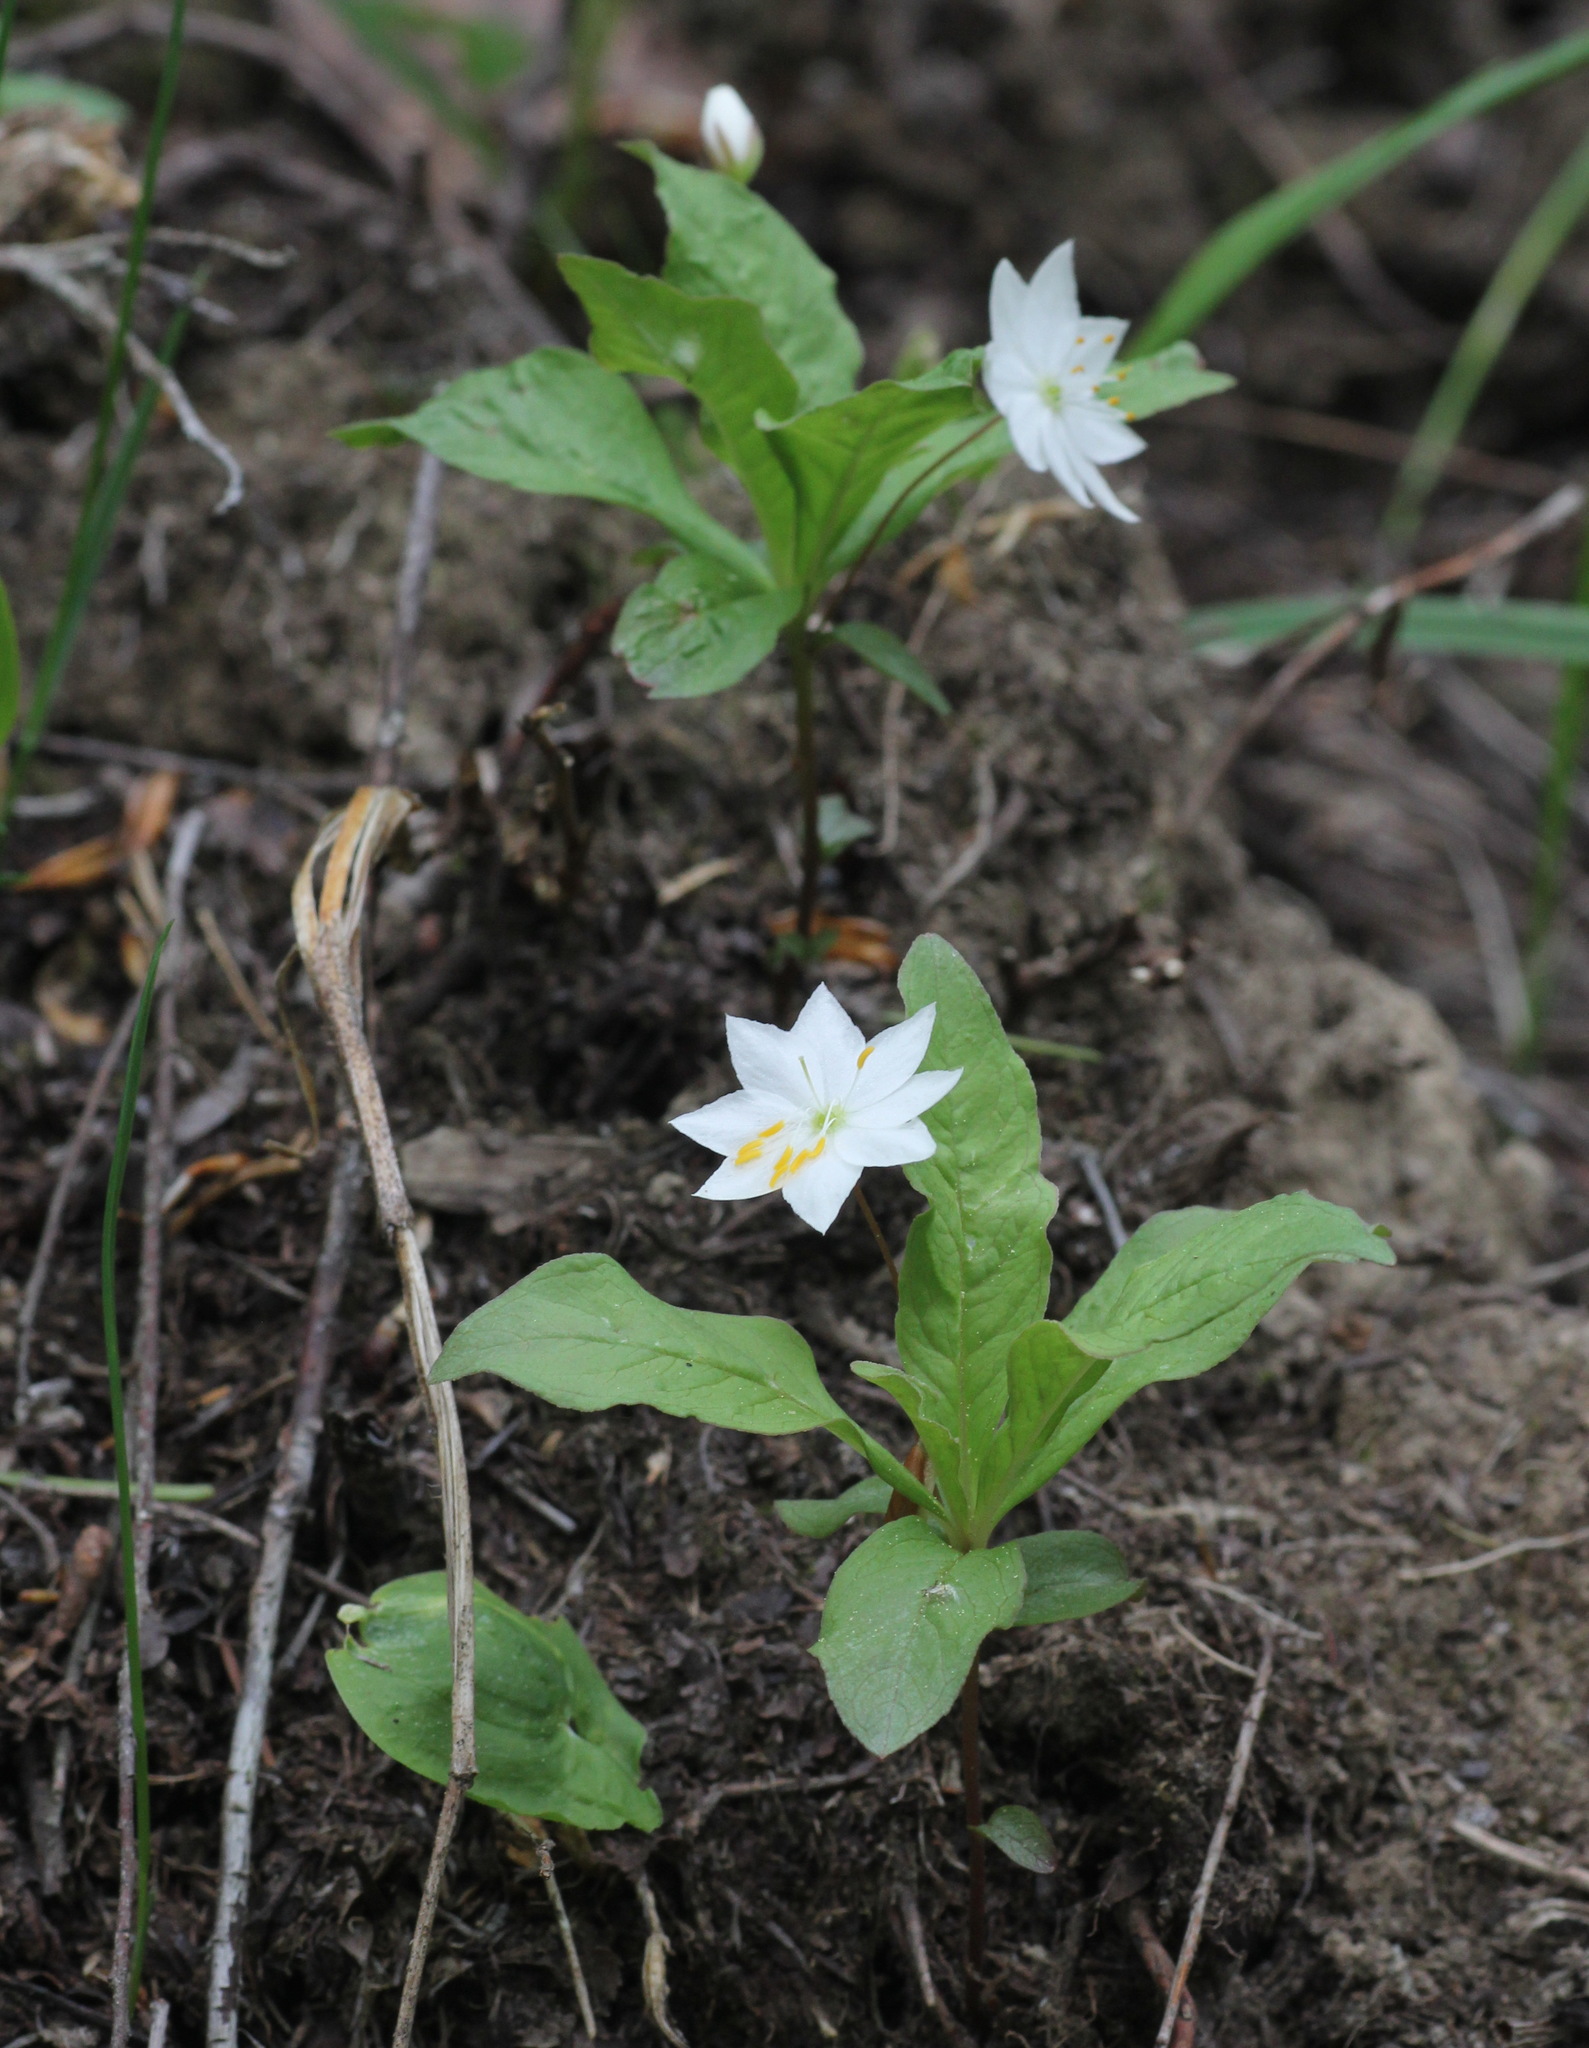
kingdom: Plantae
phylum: Tracheophyta
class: Magnoliopsida
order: Ericales
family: Primulaceae
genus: Lysimachia
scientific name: Lysimachia europaea
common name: Arctic starflower
